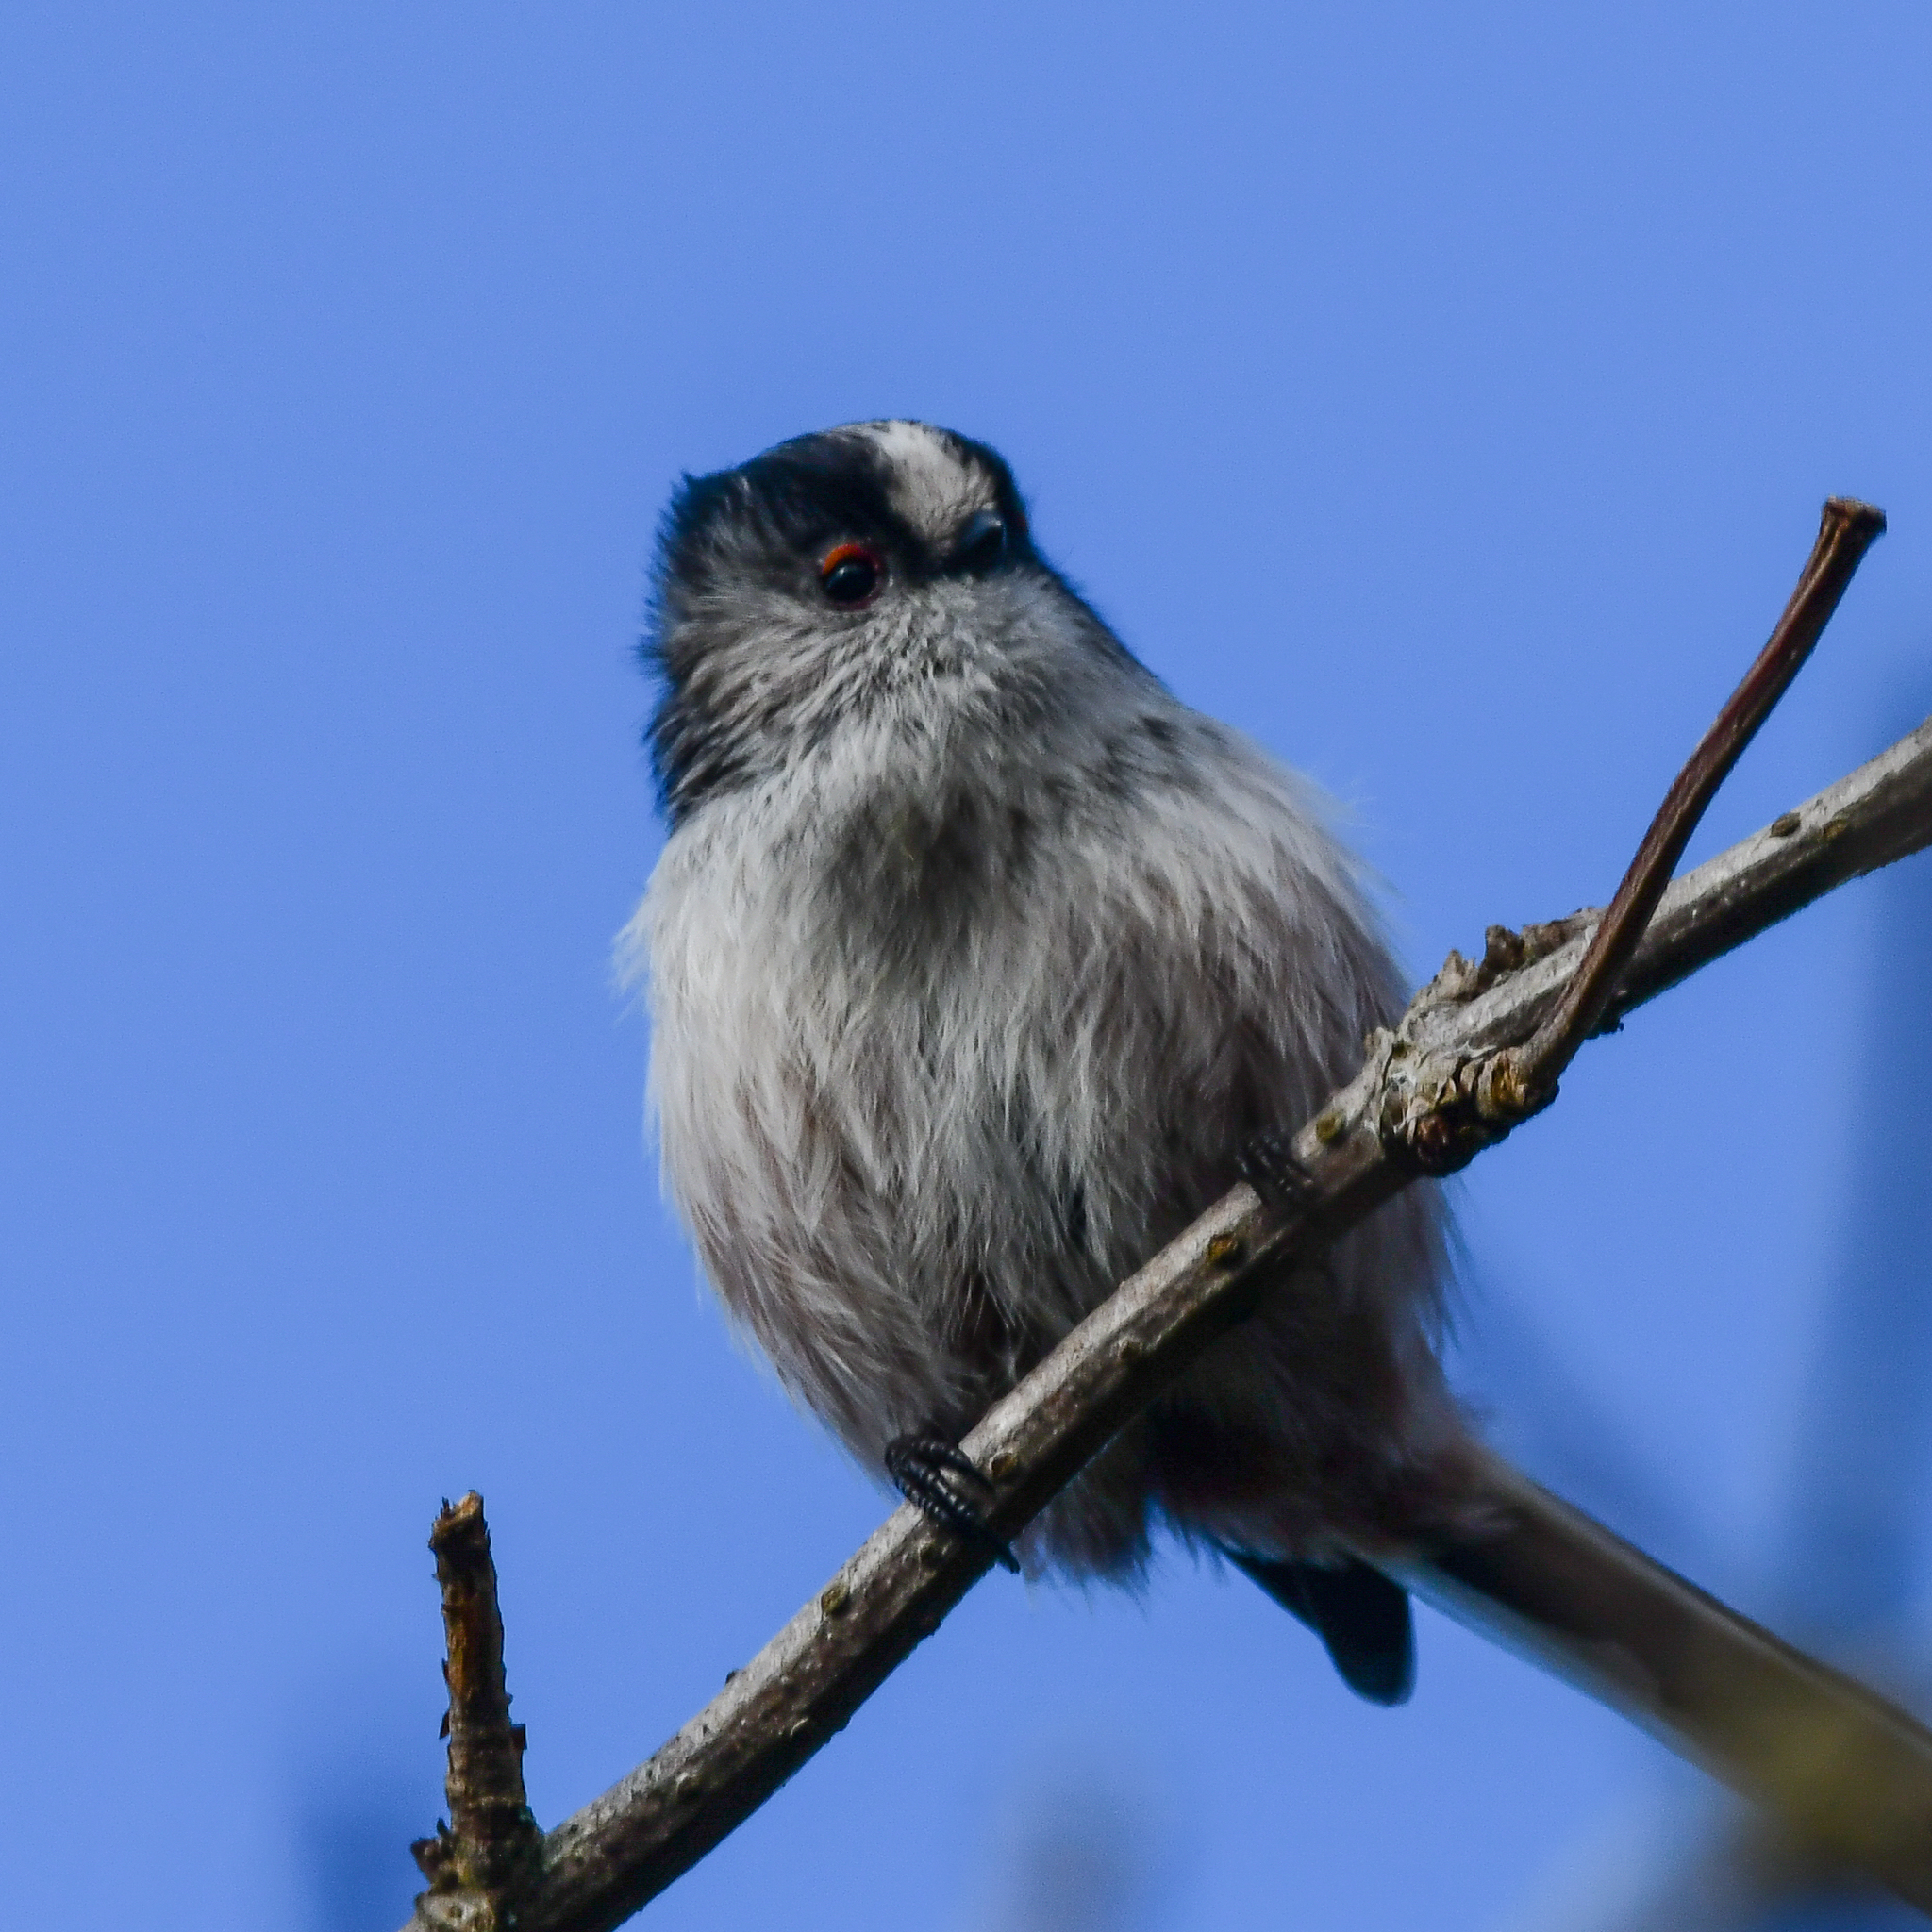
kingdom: Animalia
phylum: Chordata
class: Aves
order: Passeriformes
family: Aegithalidae
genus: Aegithalos
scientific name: Aegithalos caudatus
